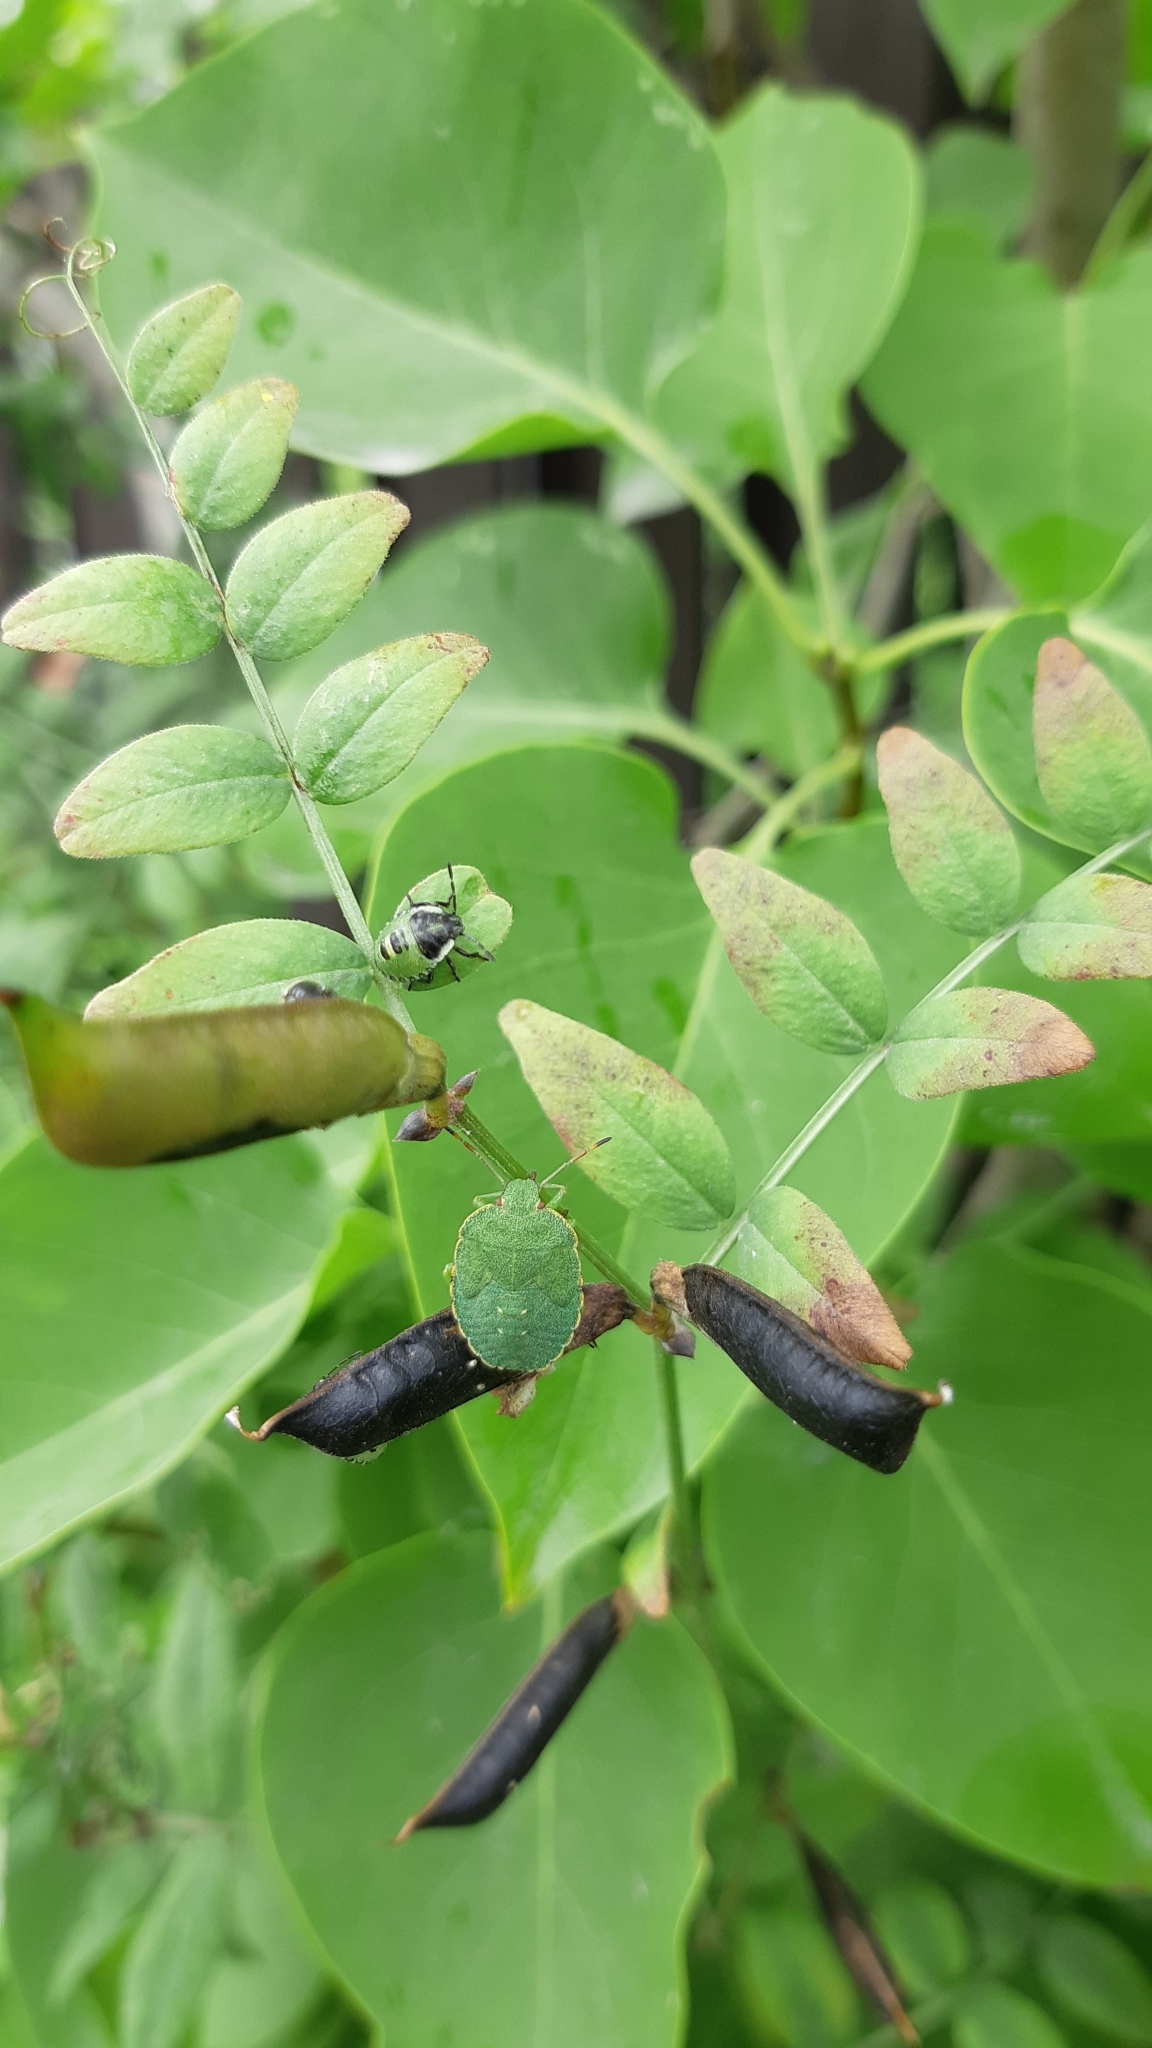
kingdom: Animalia
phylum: Arthropoda
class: Insecta
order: Hemiptera
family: Pentatomidae
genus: Palomena
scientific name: Palomena prasina
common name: Green shieldbug
